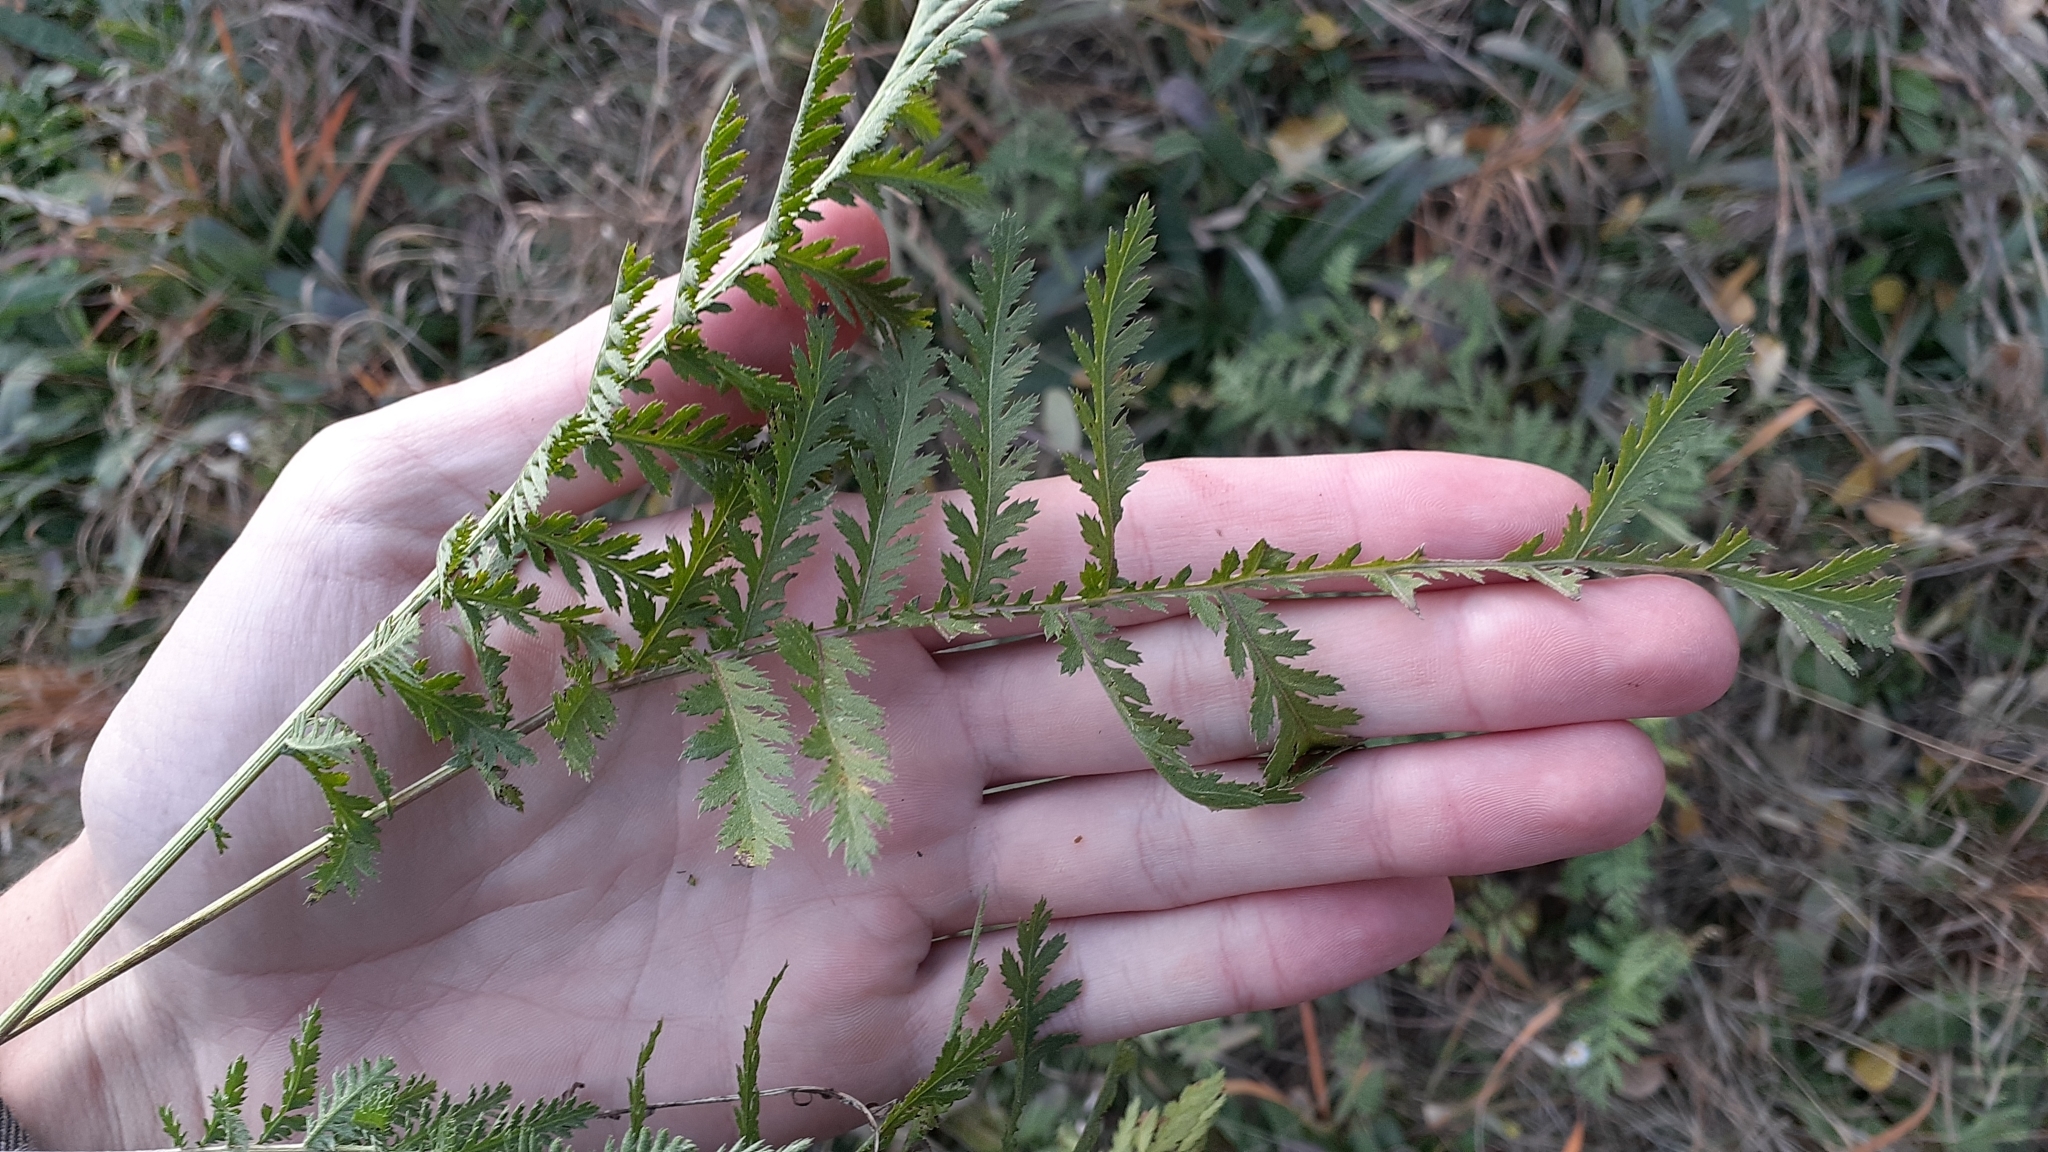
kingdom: Plantae
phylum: Tracheophyta
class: Magnoliopsida
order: Asterales
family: Asteraceae
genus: Tanacetum
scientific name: Tanacetum vulgare
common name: Common tansy
